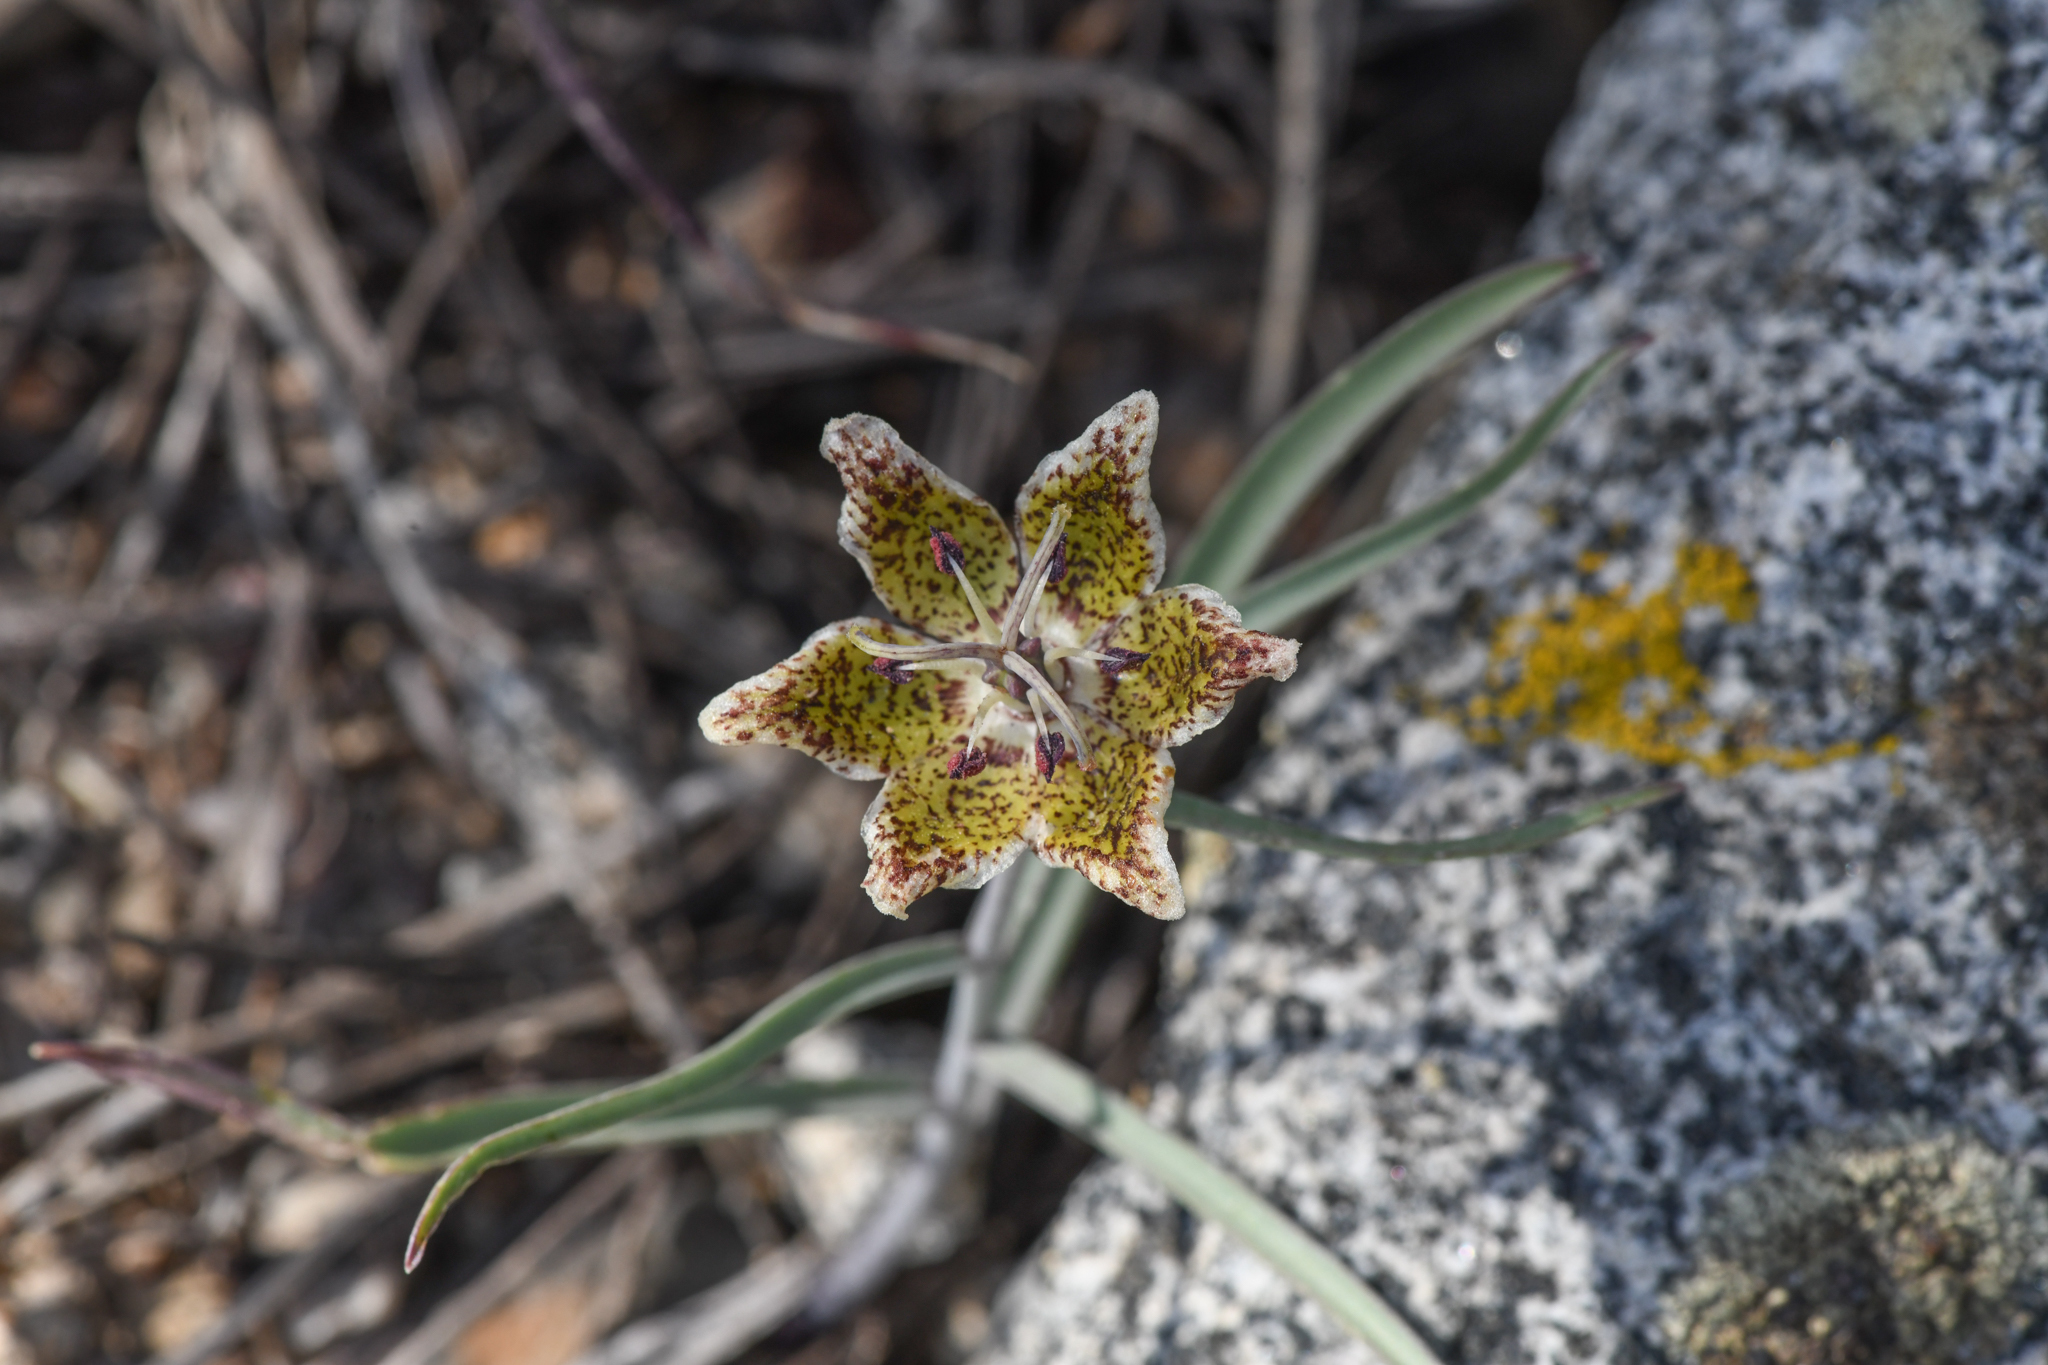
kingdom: Plantae
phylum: Tracheophyta
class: Liliopsida
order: Liliales
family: Liliaceae
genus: Fritillaria
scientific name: Fritillaria pinetorum
